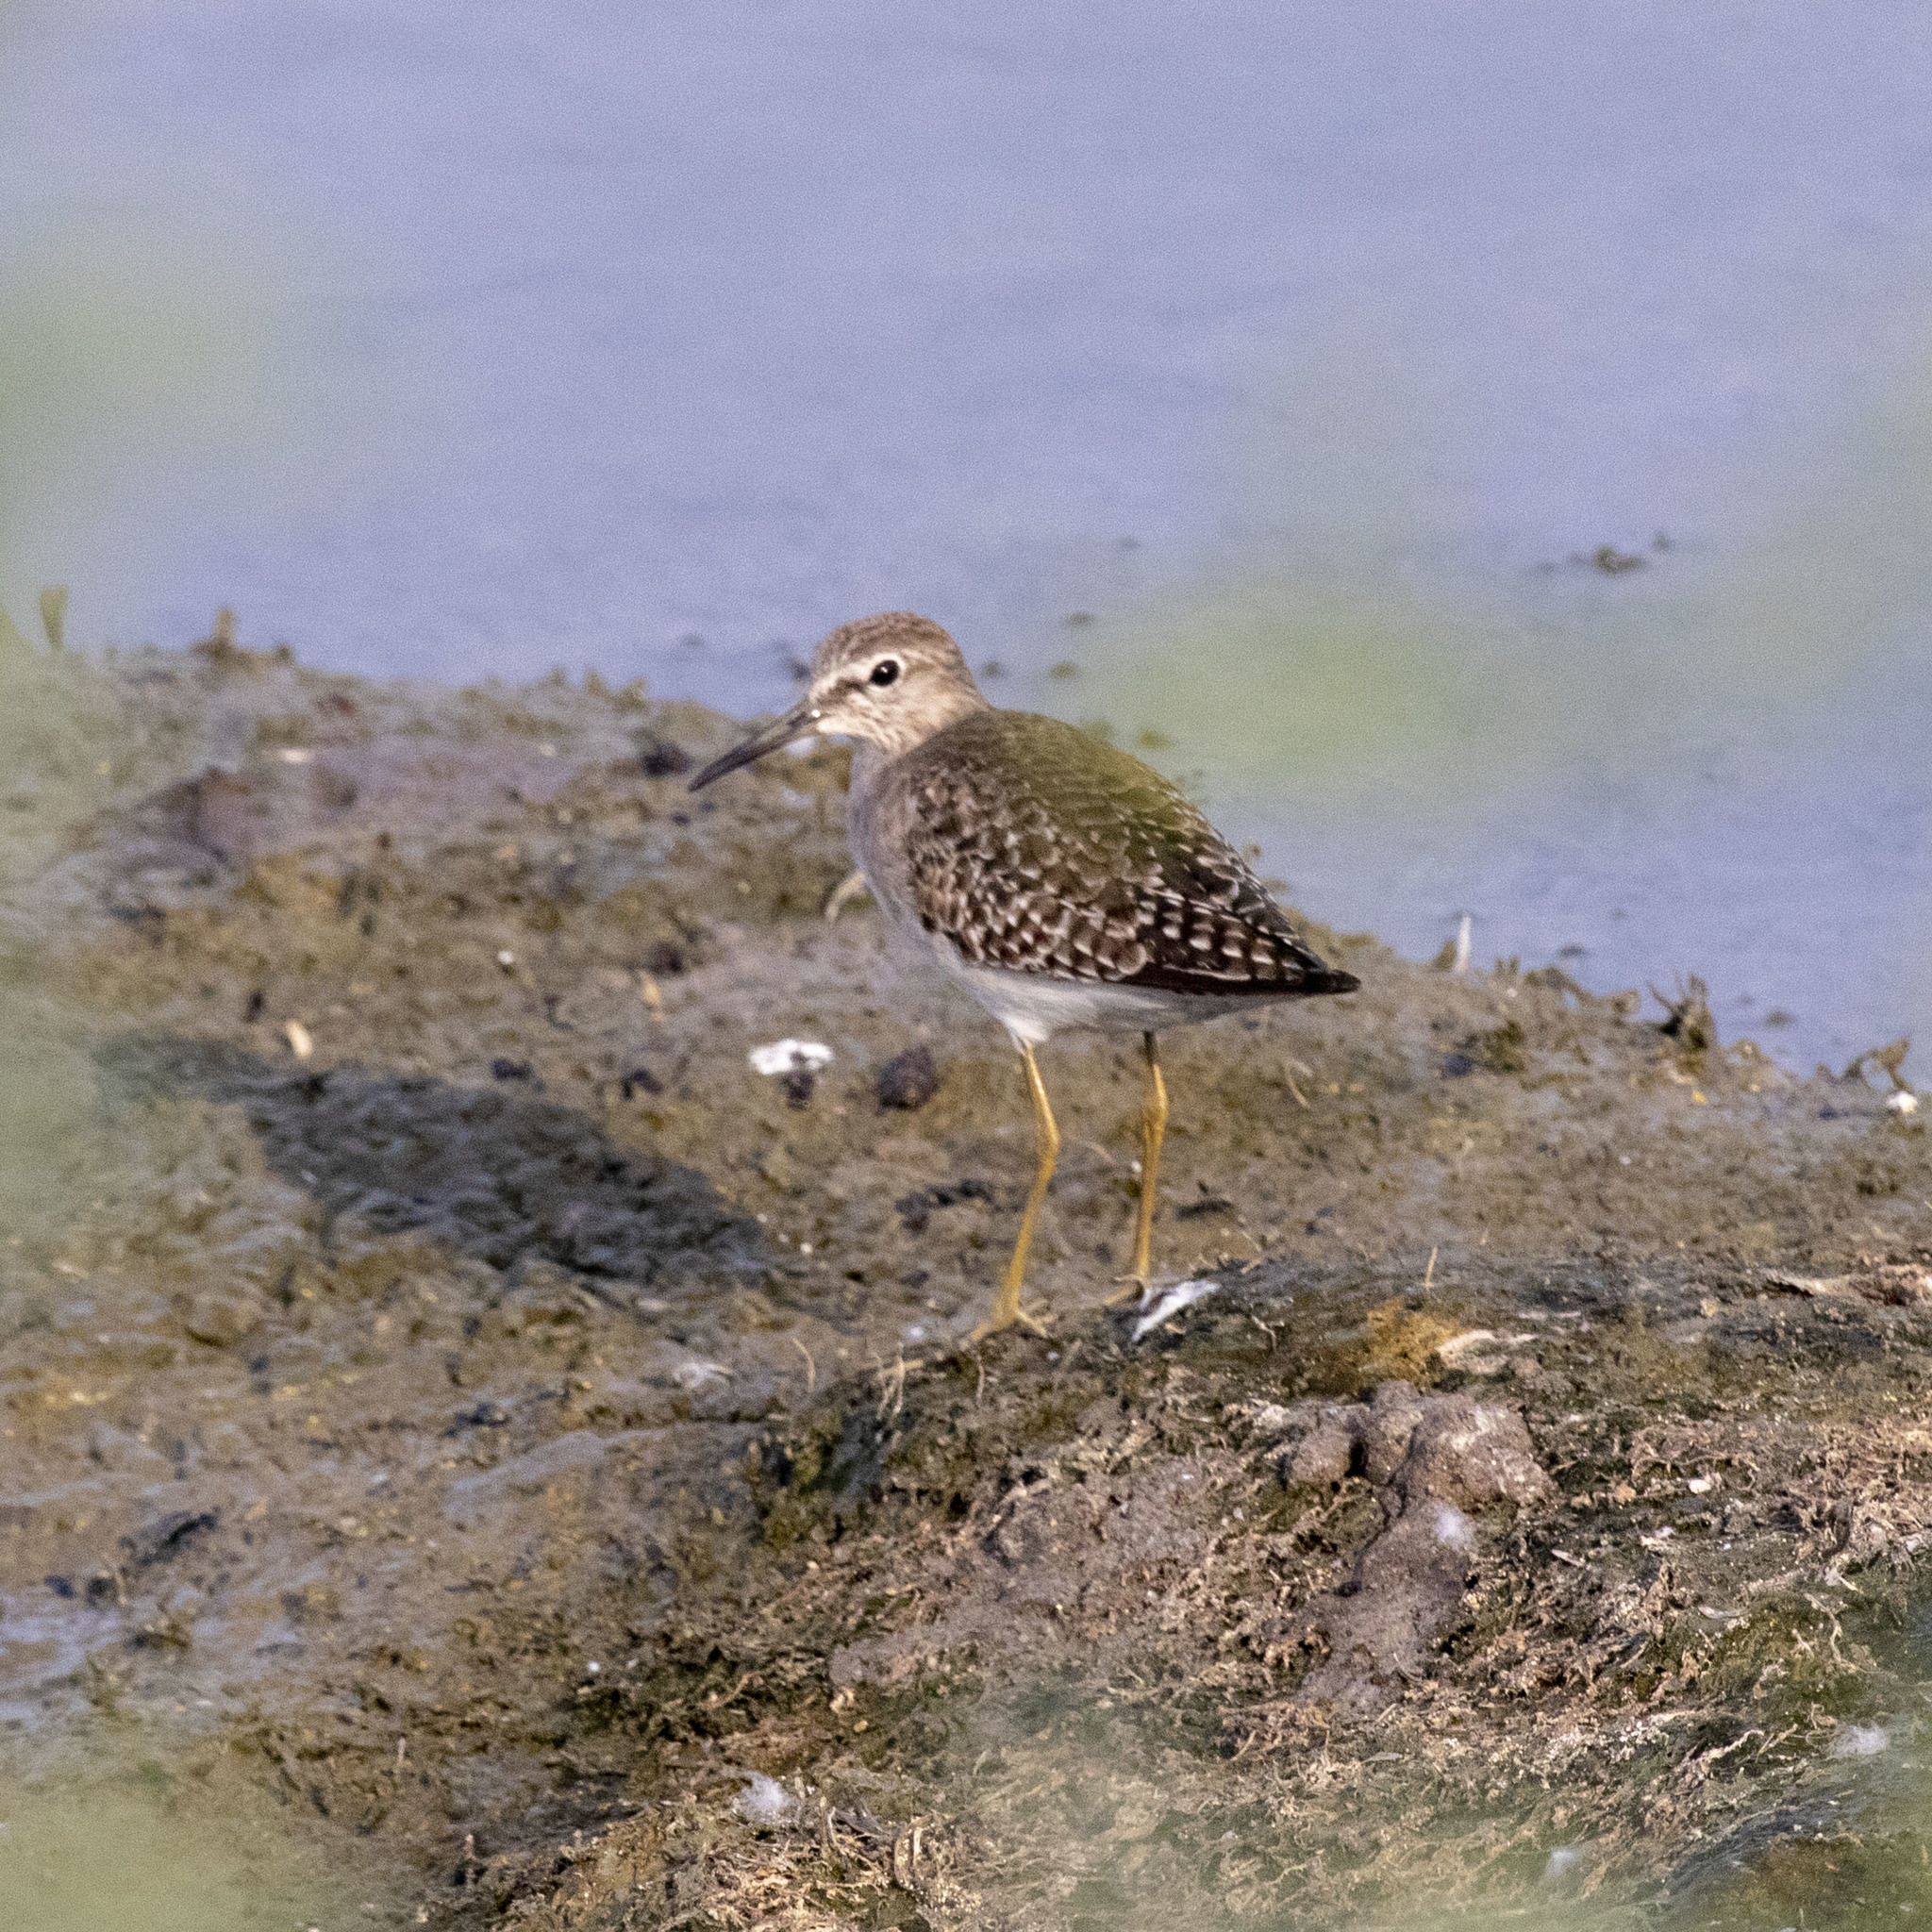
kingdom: Animalia
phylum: Chordata
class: Aves
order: Charadriiformes
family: Scolopacidae
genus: Tringa
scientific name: Tringa glareola
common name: Wood sandpiper
